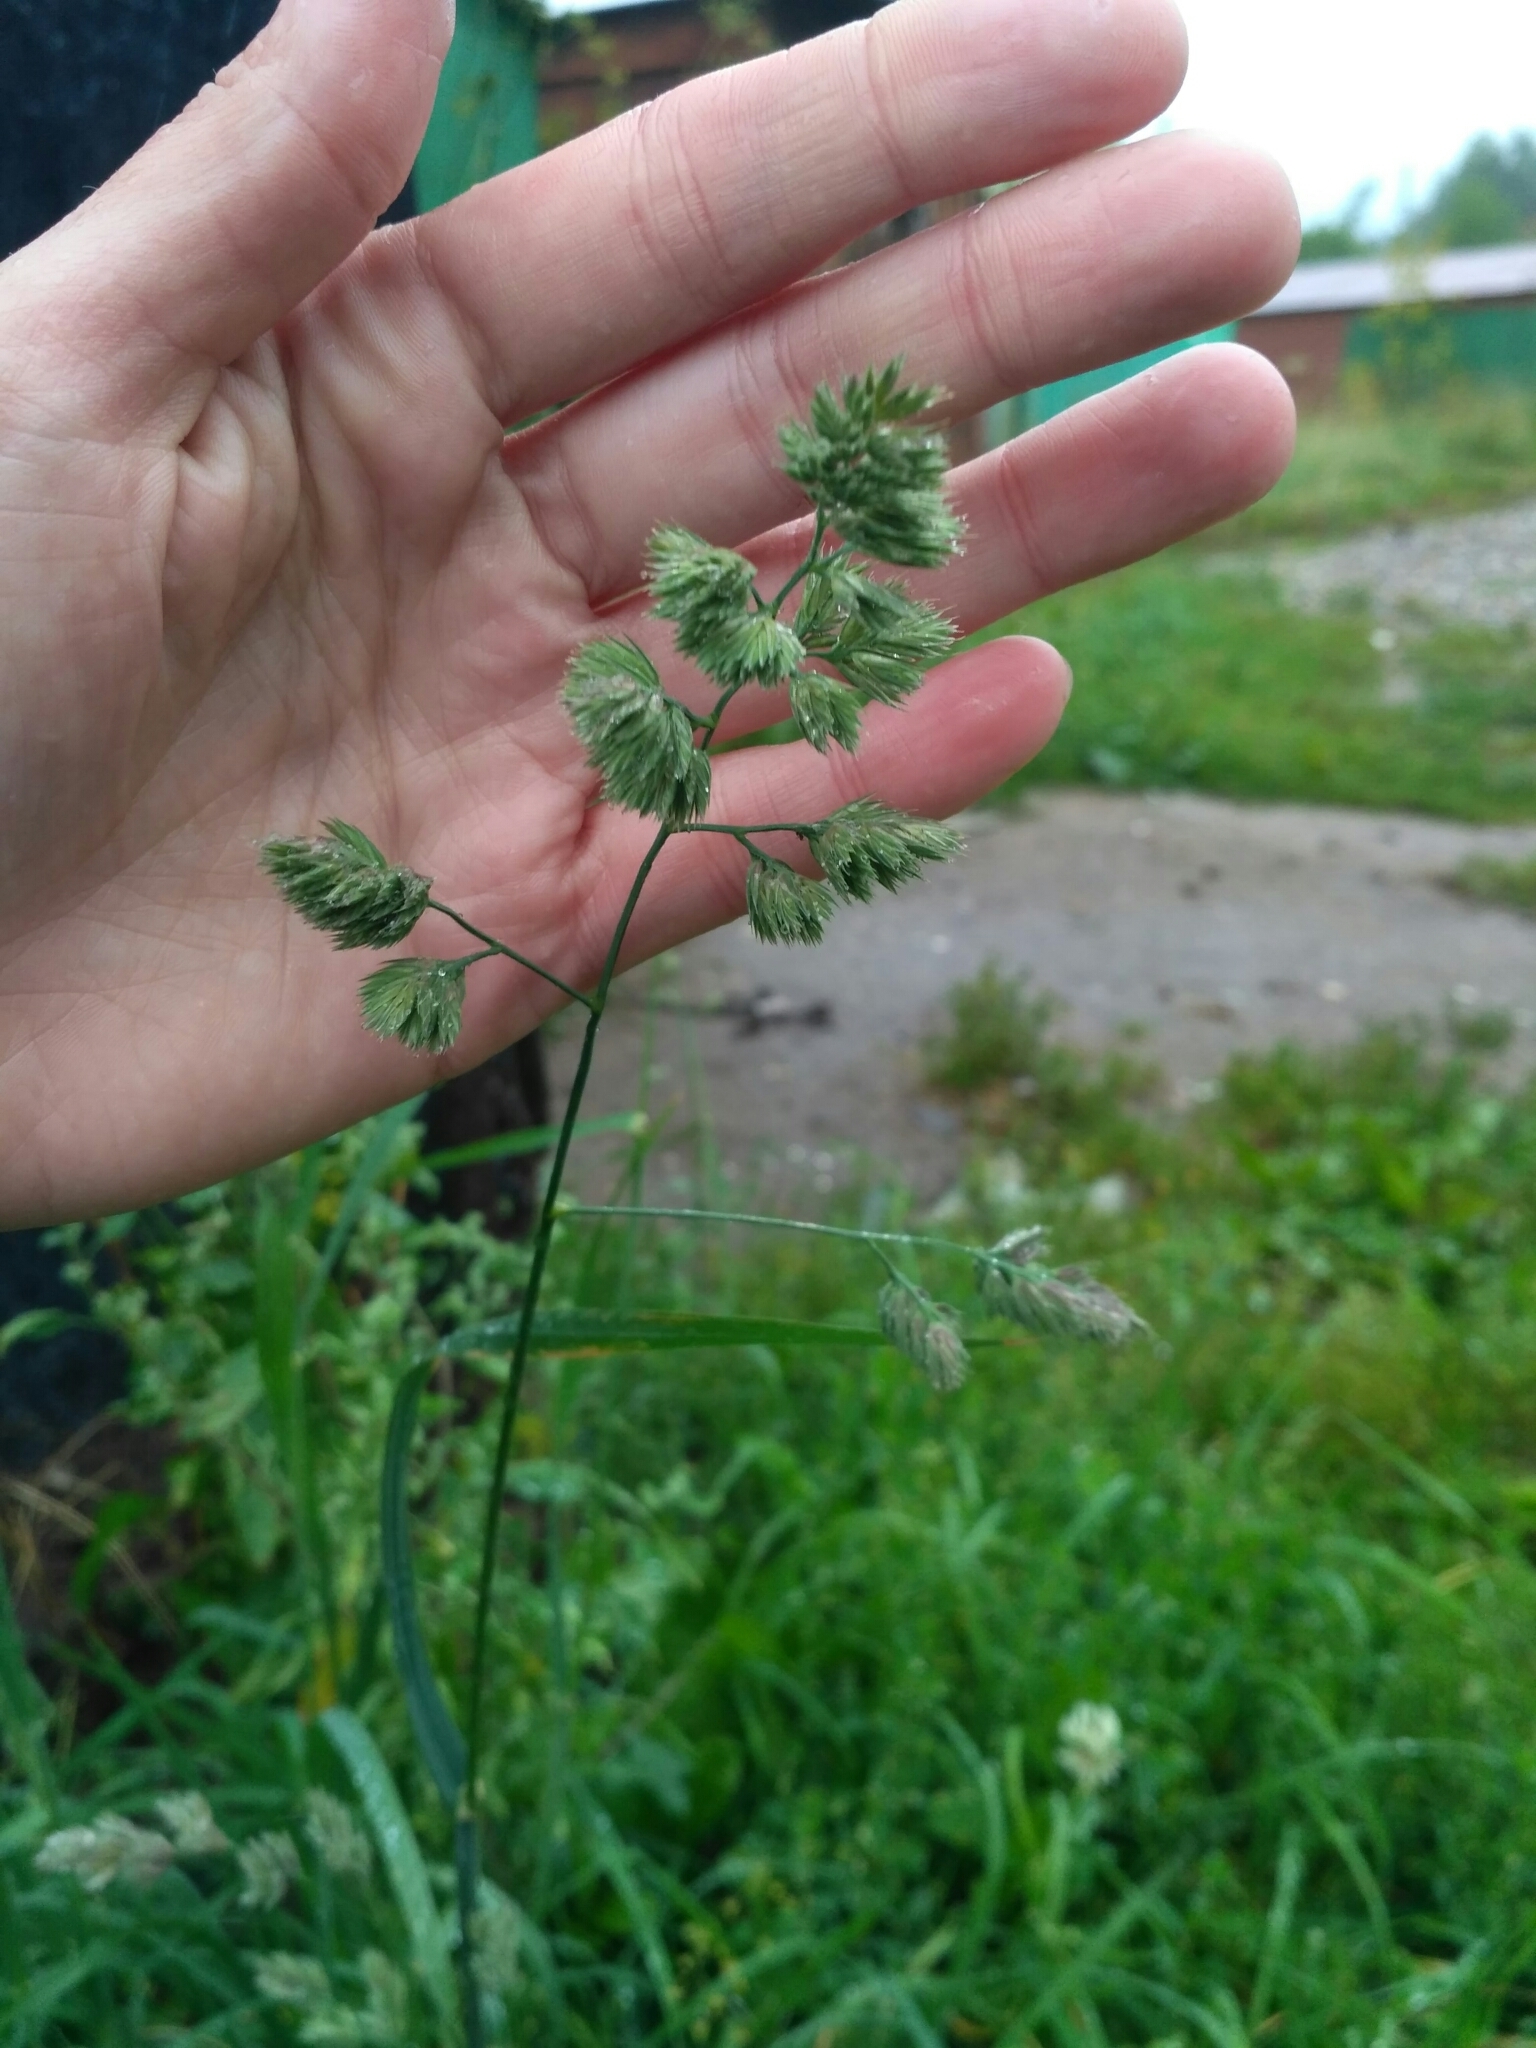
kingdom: Plantae
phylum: Tracheophyta
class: Liliopsida
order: Poales
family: Poaceae
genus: Dactylis
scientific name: Dactylis glomerata
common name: Orchardgrass
